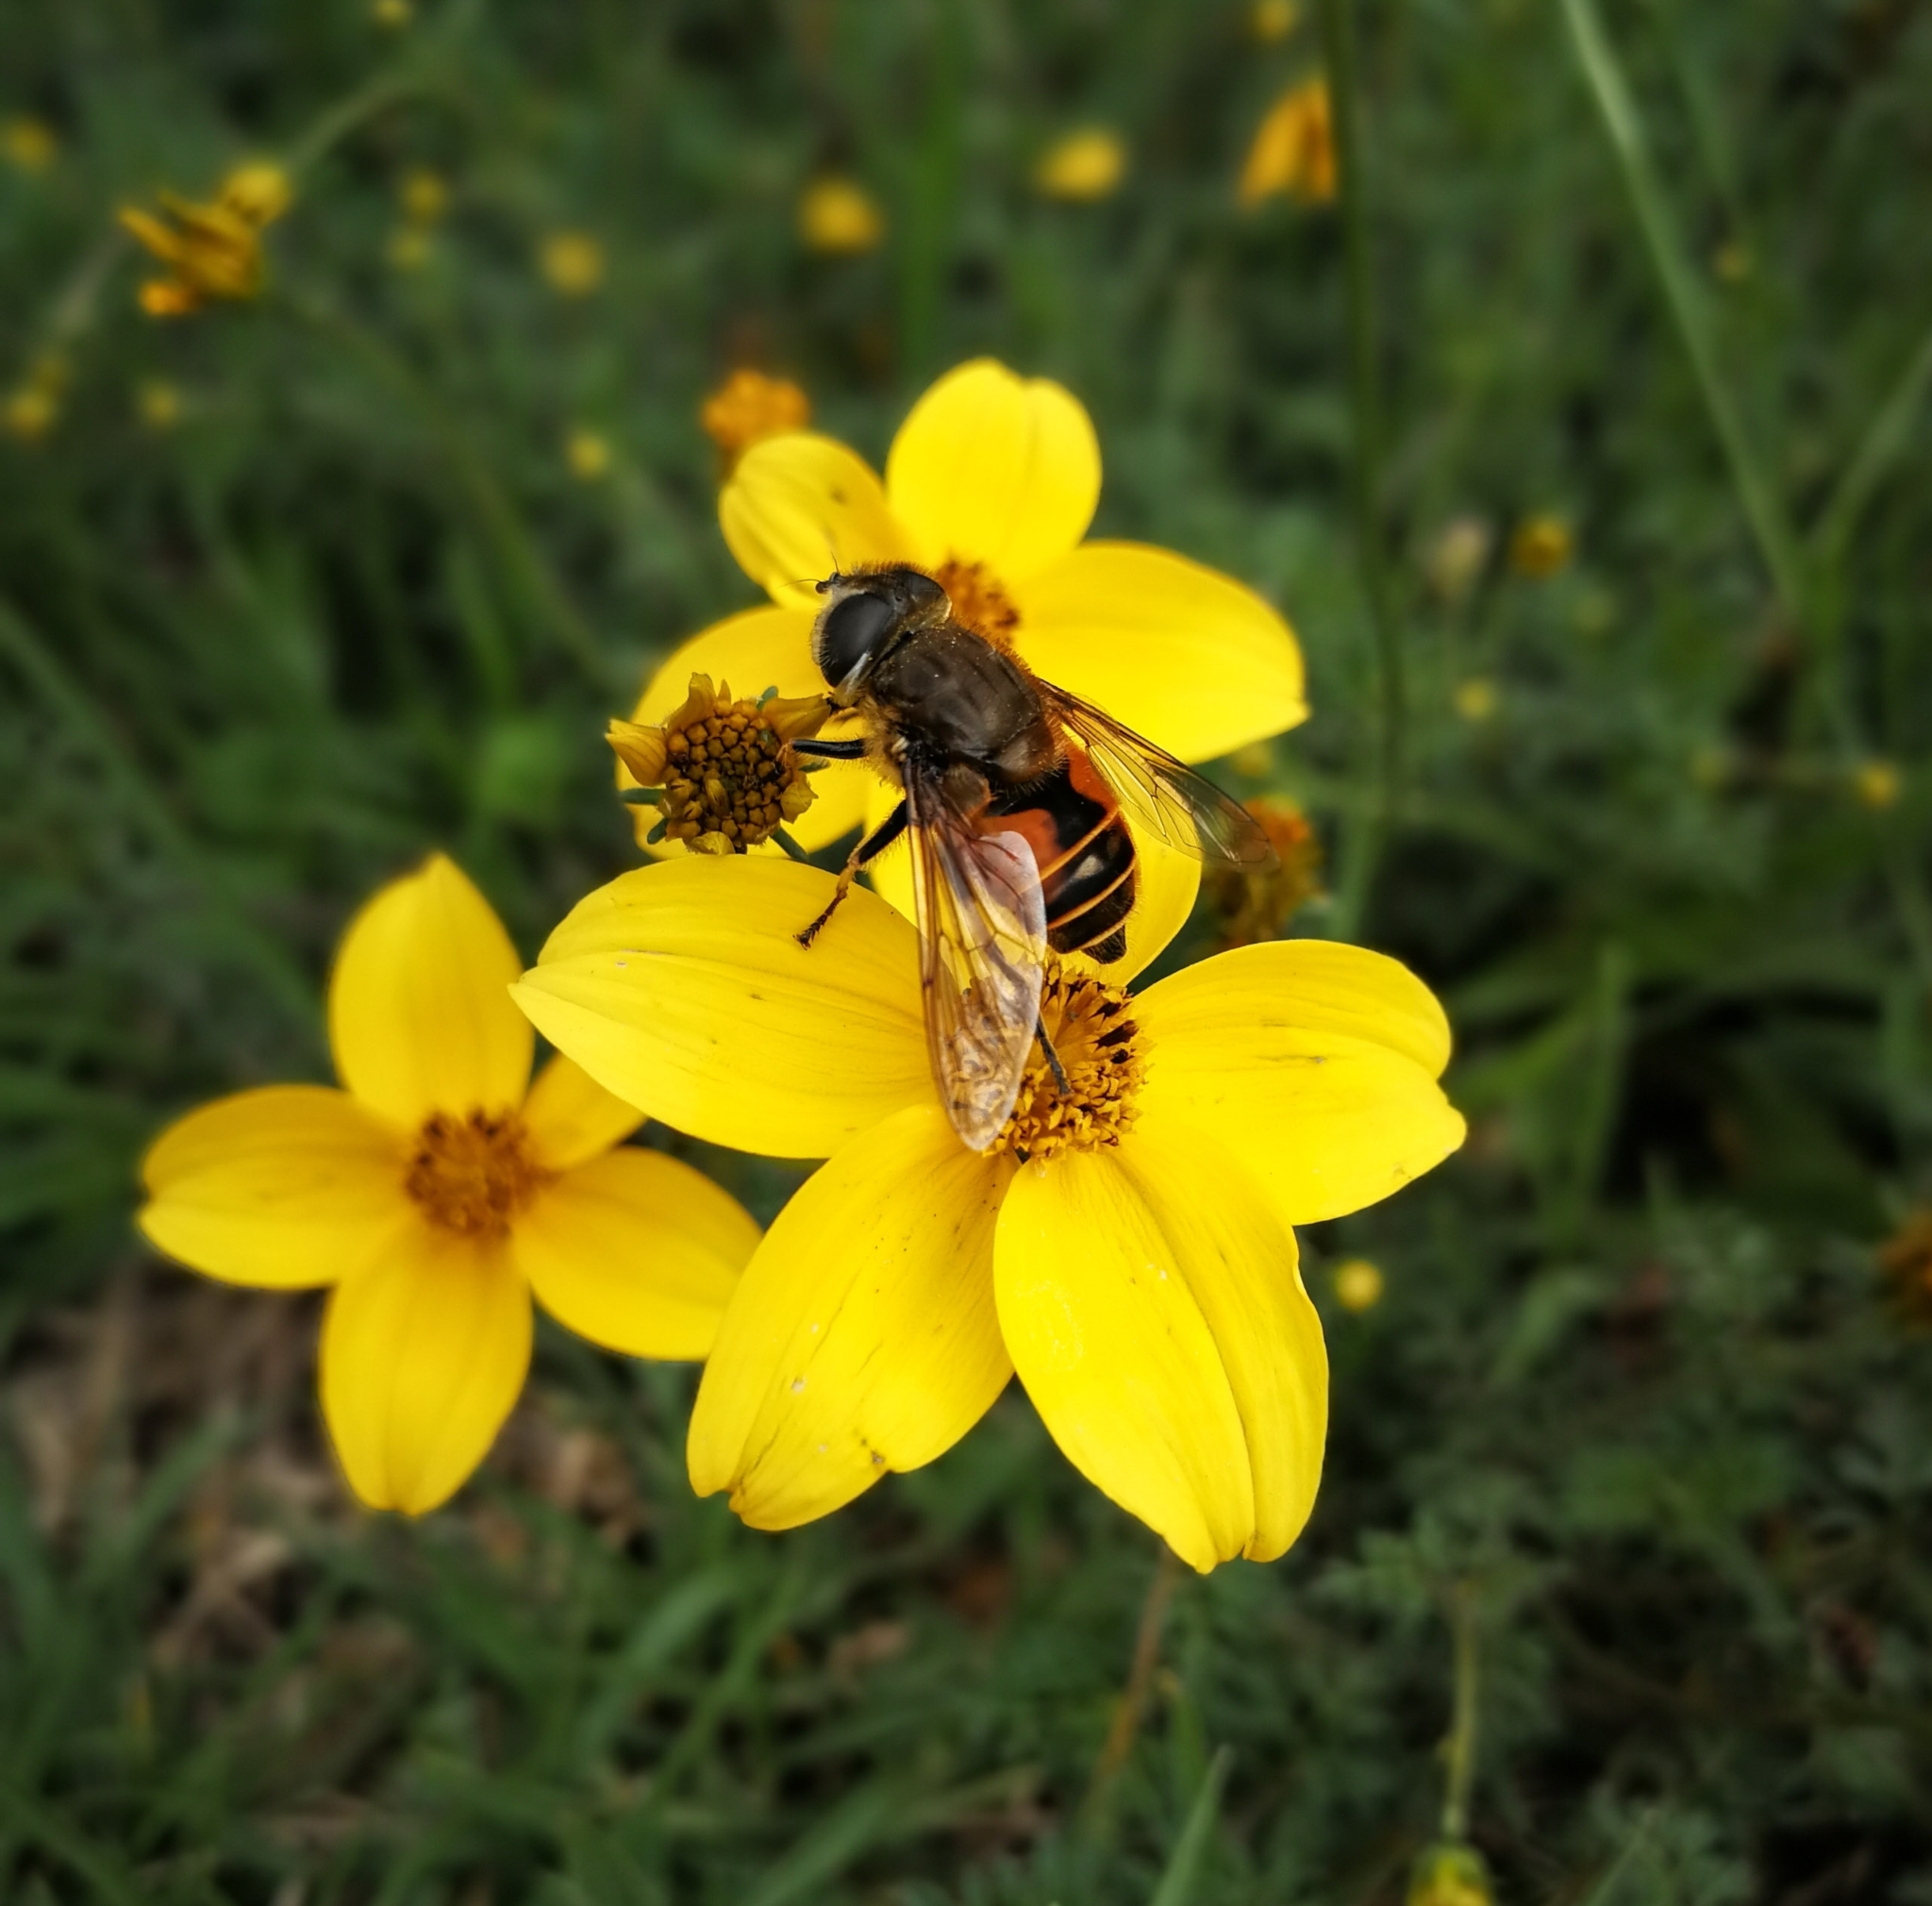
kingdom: Animalia
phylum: Arthropoda
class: Insecta
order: Diptera
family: Syrphidae
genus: Eristalis
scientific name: Eristalis bogotensis
